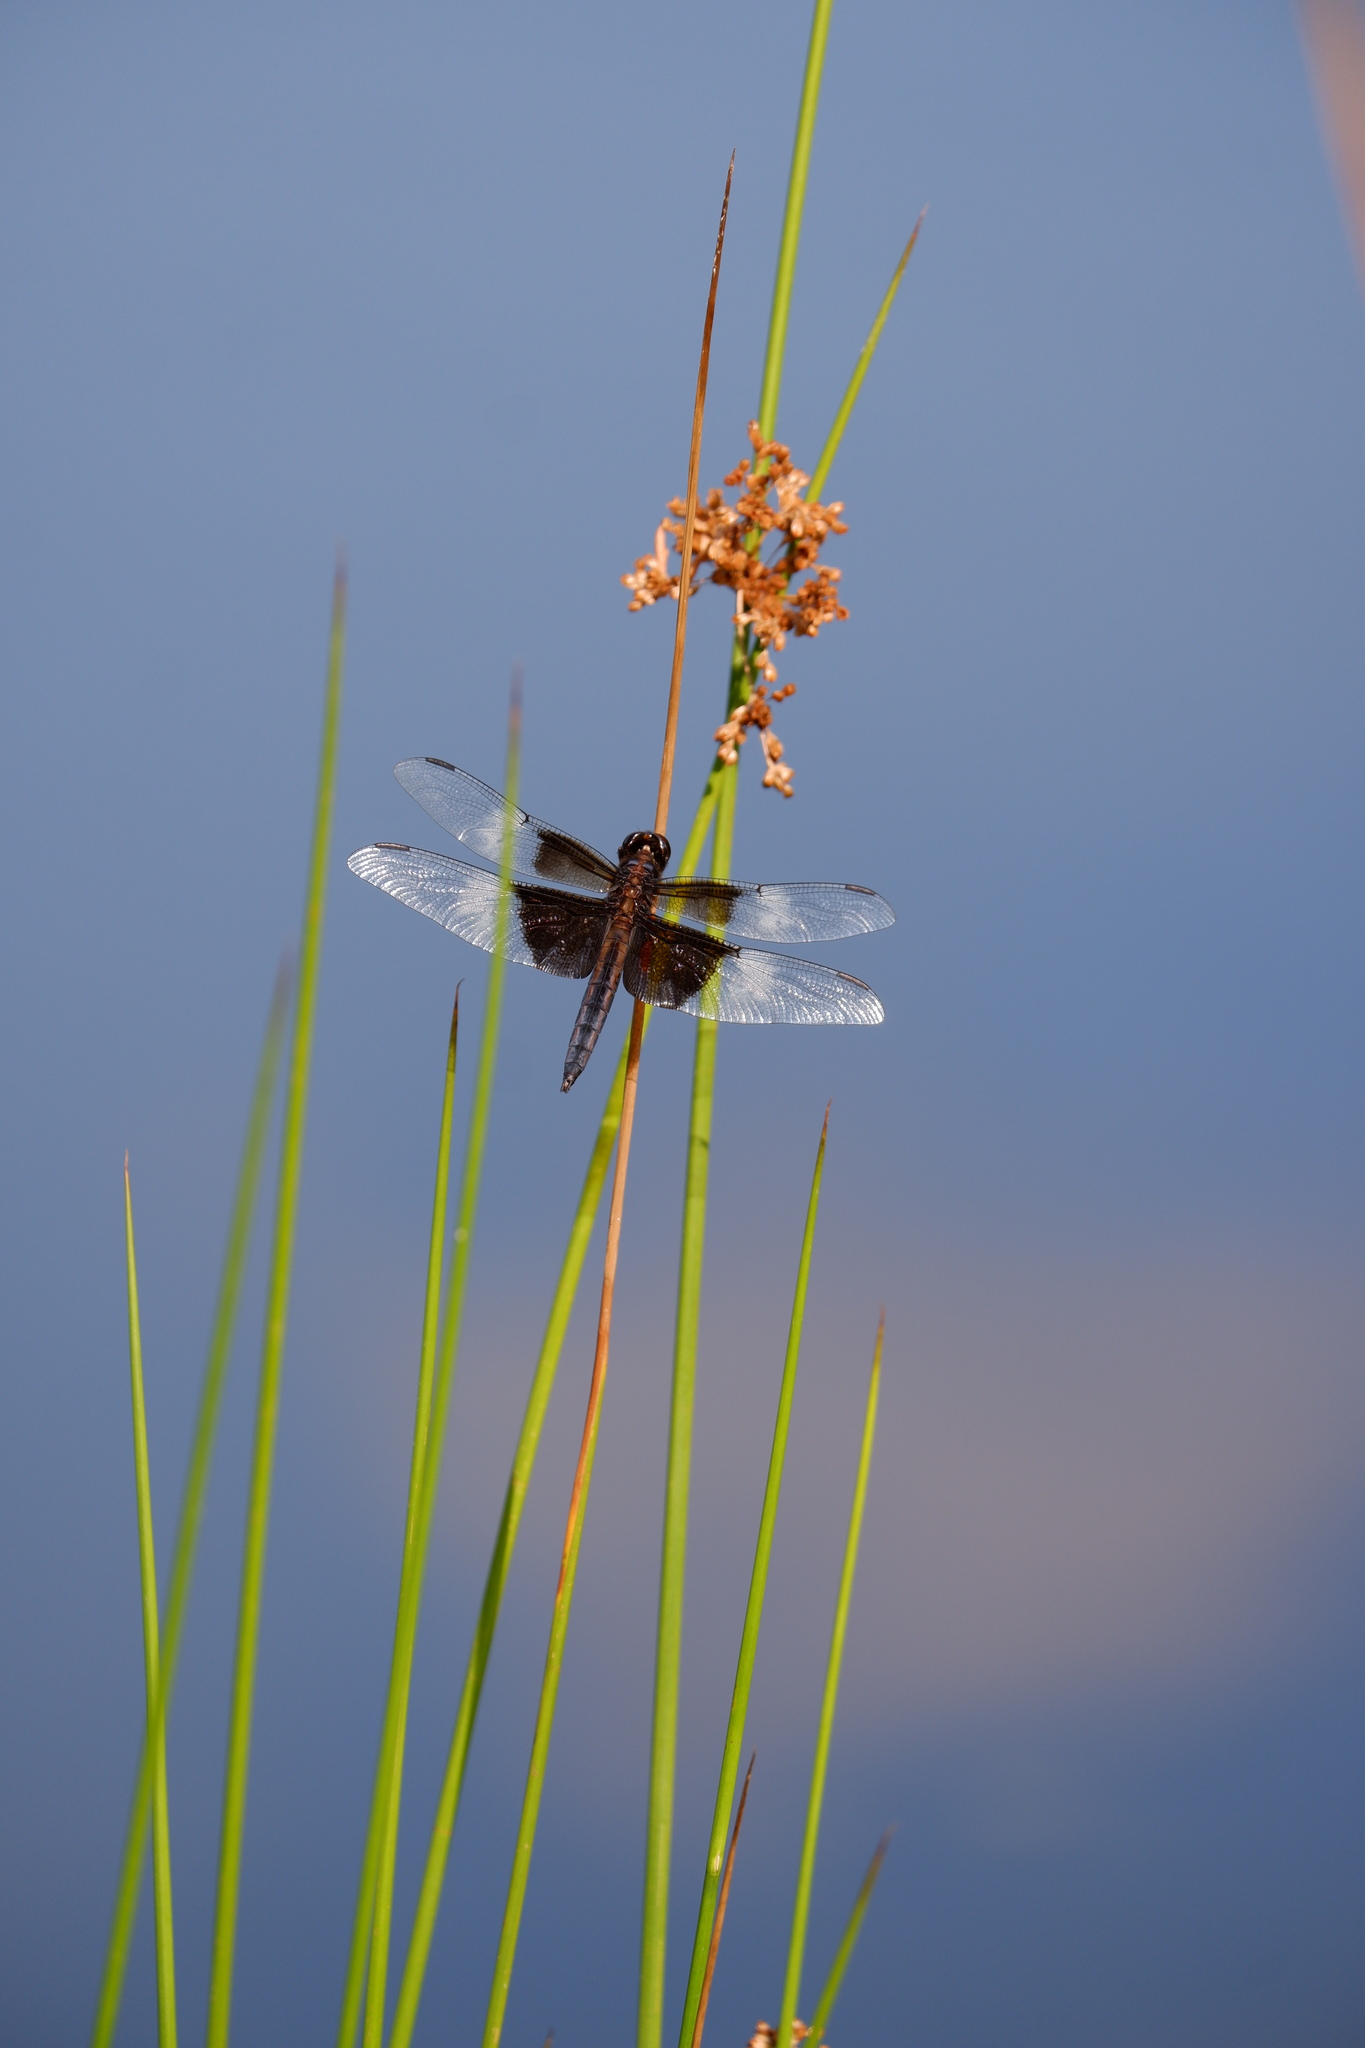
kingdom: Animalia
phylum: Arthropoda
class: Insecta
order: Odonata
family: Libellulidae
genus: Libellula
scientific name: Libellula luctuosa
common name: Widow skimmer
